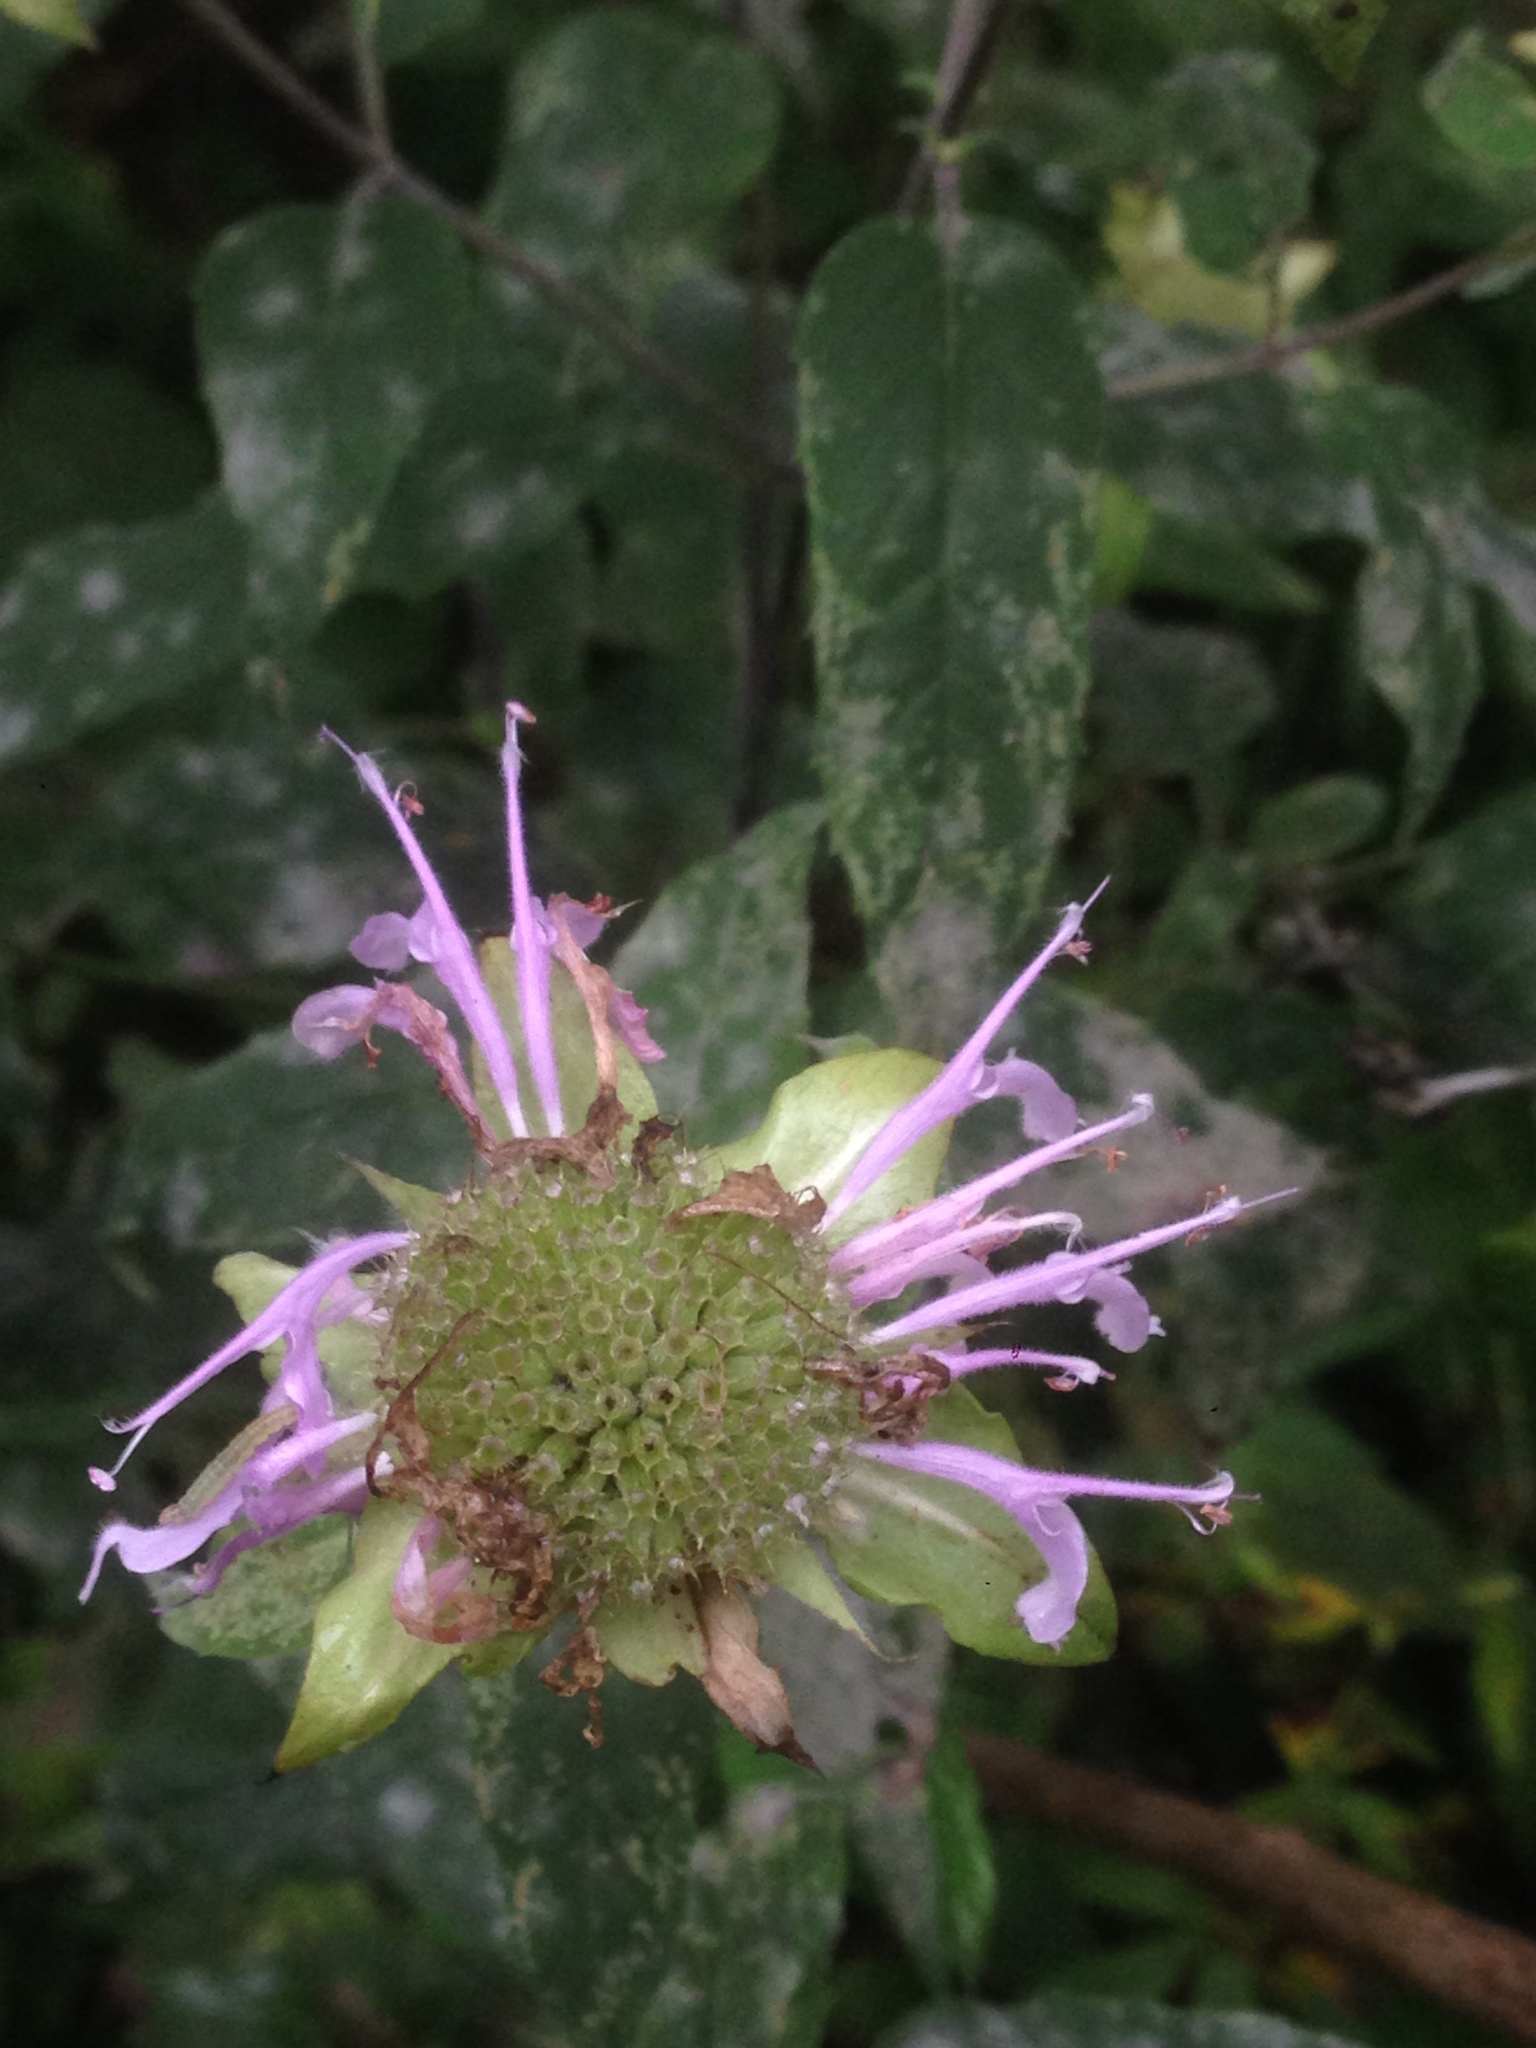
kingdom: Plantae
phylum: Tracheophyta
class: Magnoliopsida
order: Lamiales
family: Lamiaceae
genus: Monarda
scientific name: Monarda fistulosa
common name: Purple beebalm
